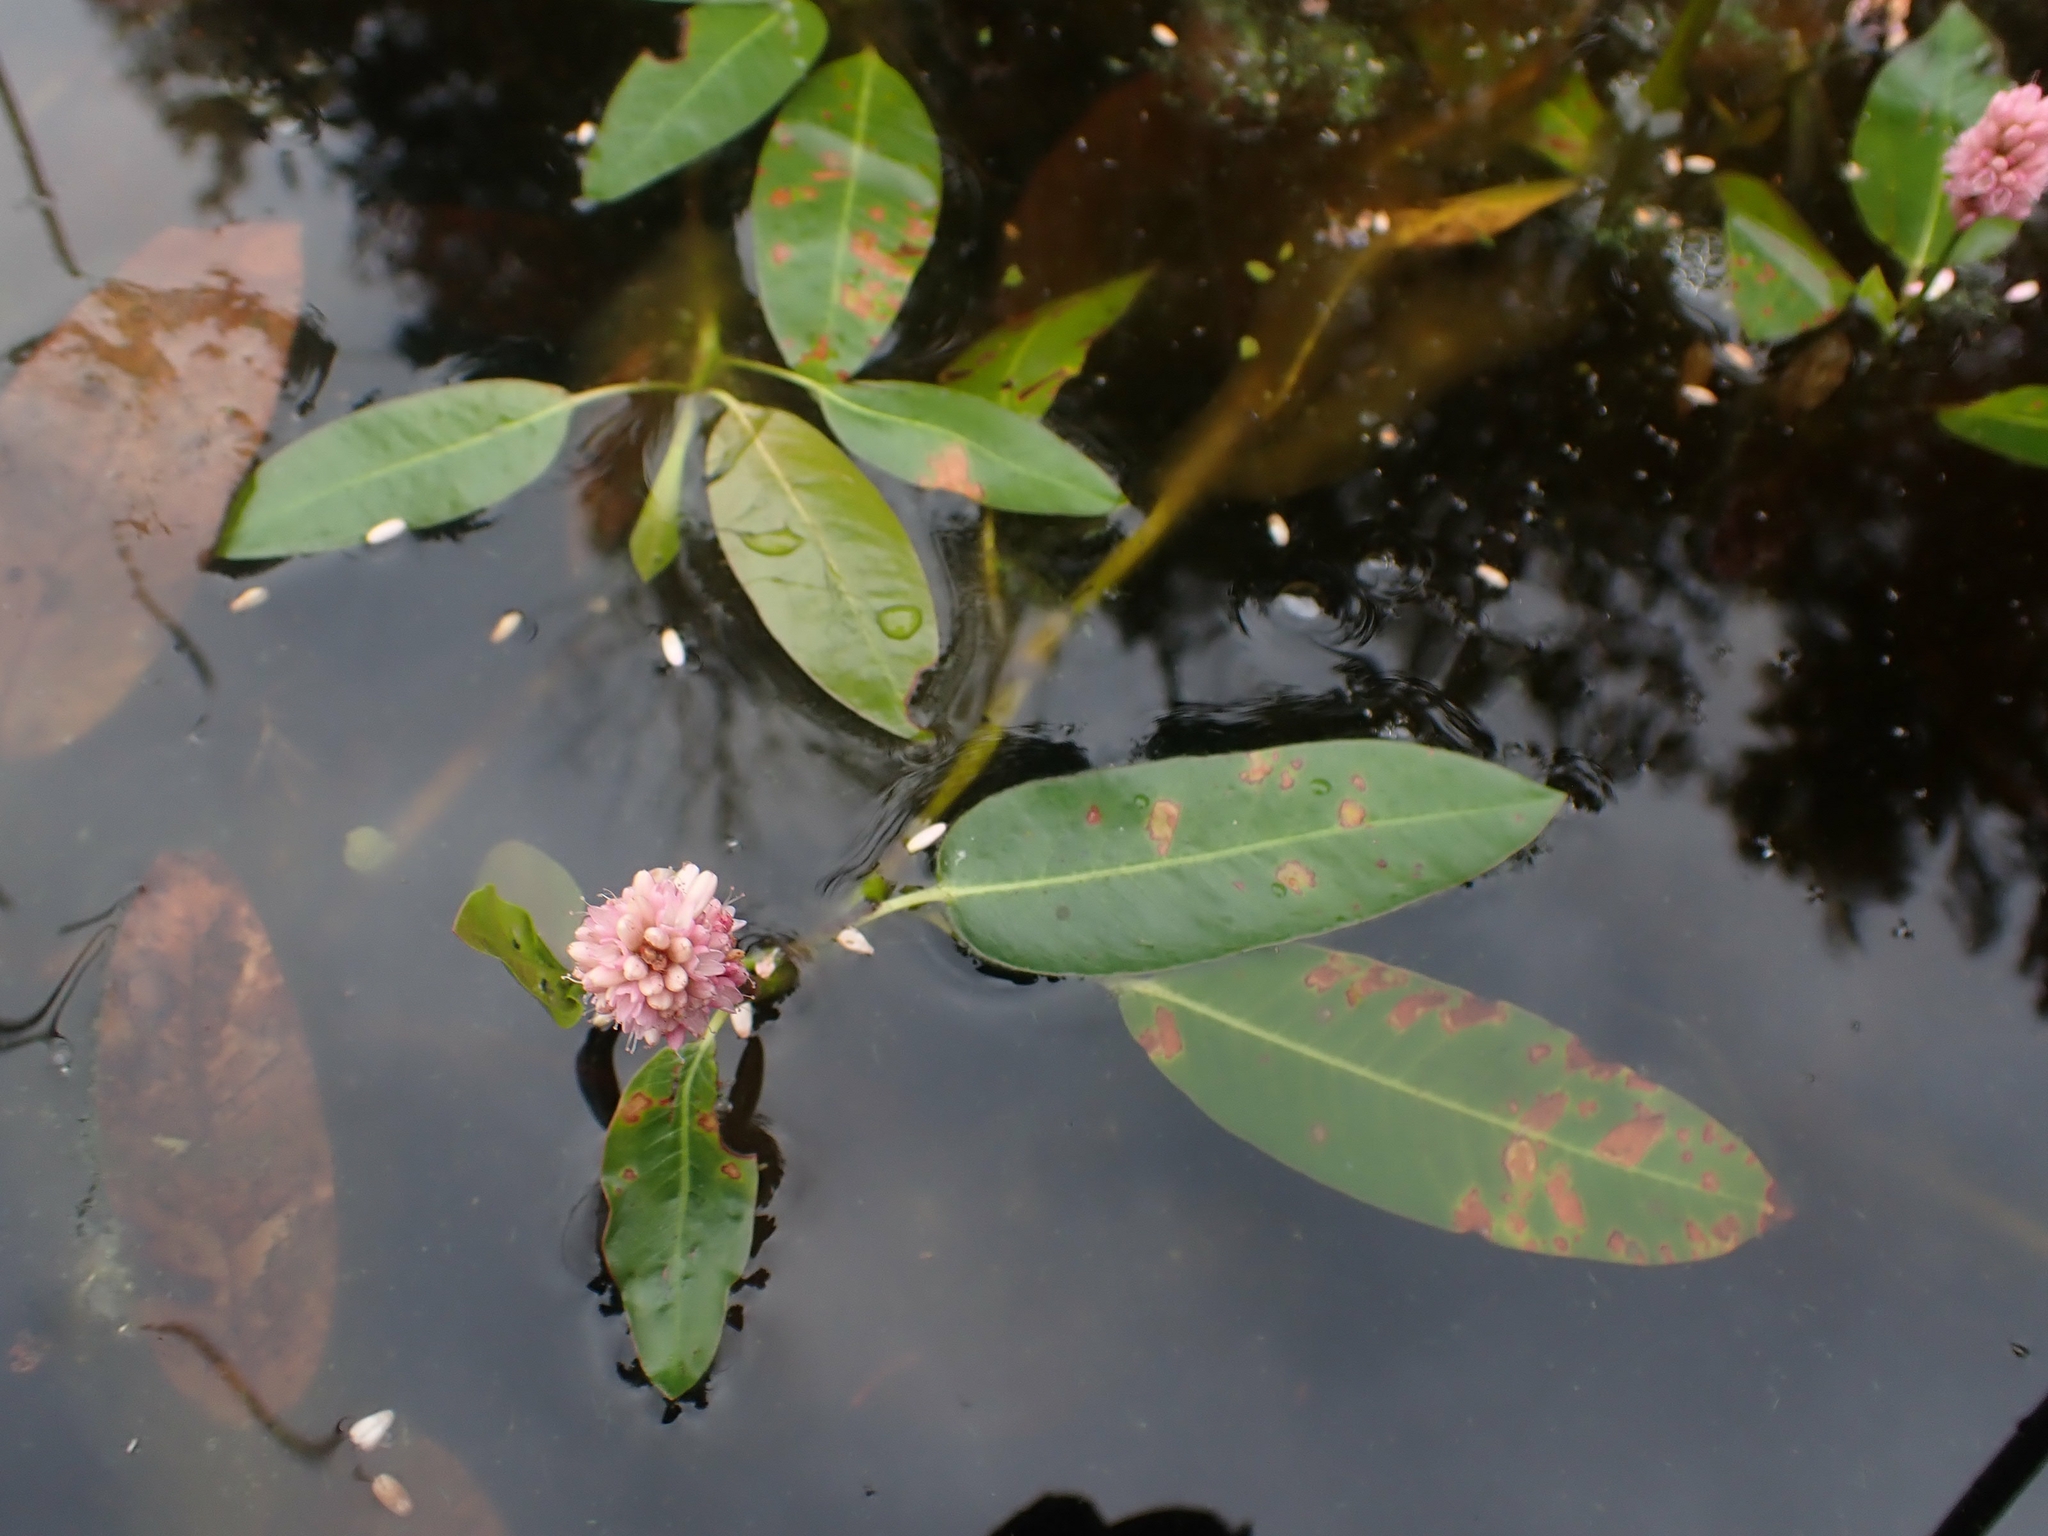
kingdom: Plantae
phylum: Tracheophyta
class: Magnoliopsida
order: Caryophyllales
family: Polygonaceae
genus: Persicaria
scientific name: Persicaria amphibia
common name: Amphibious bistort
